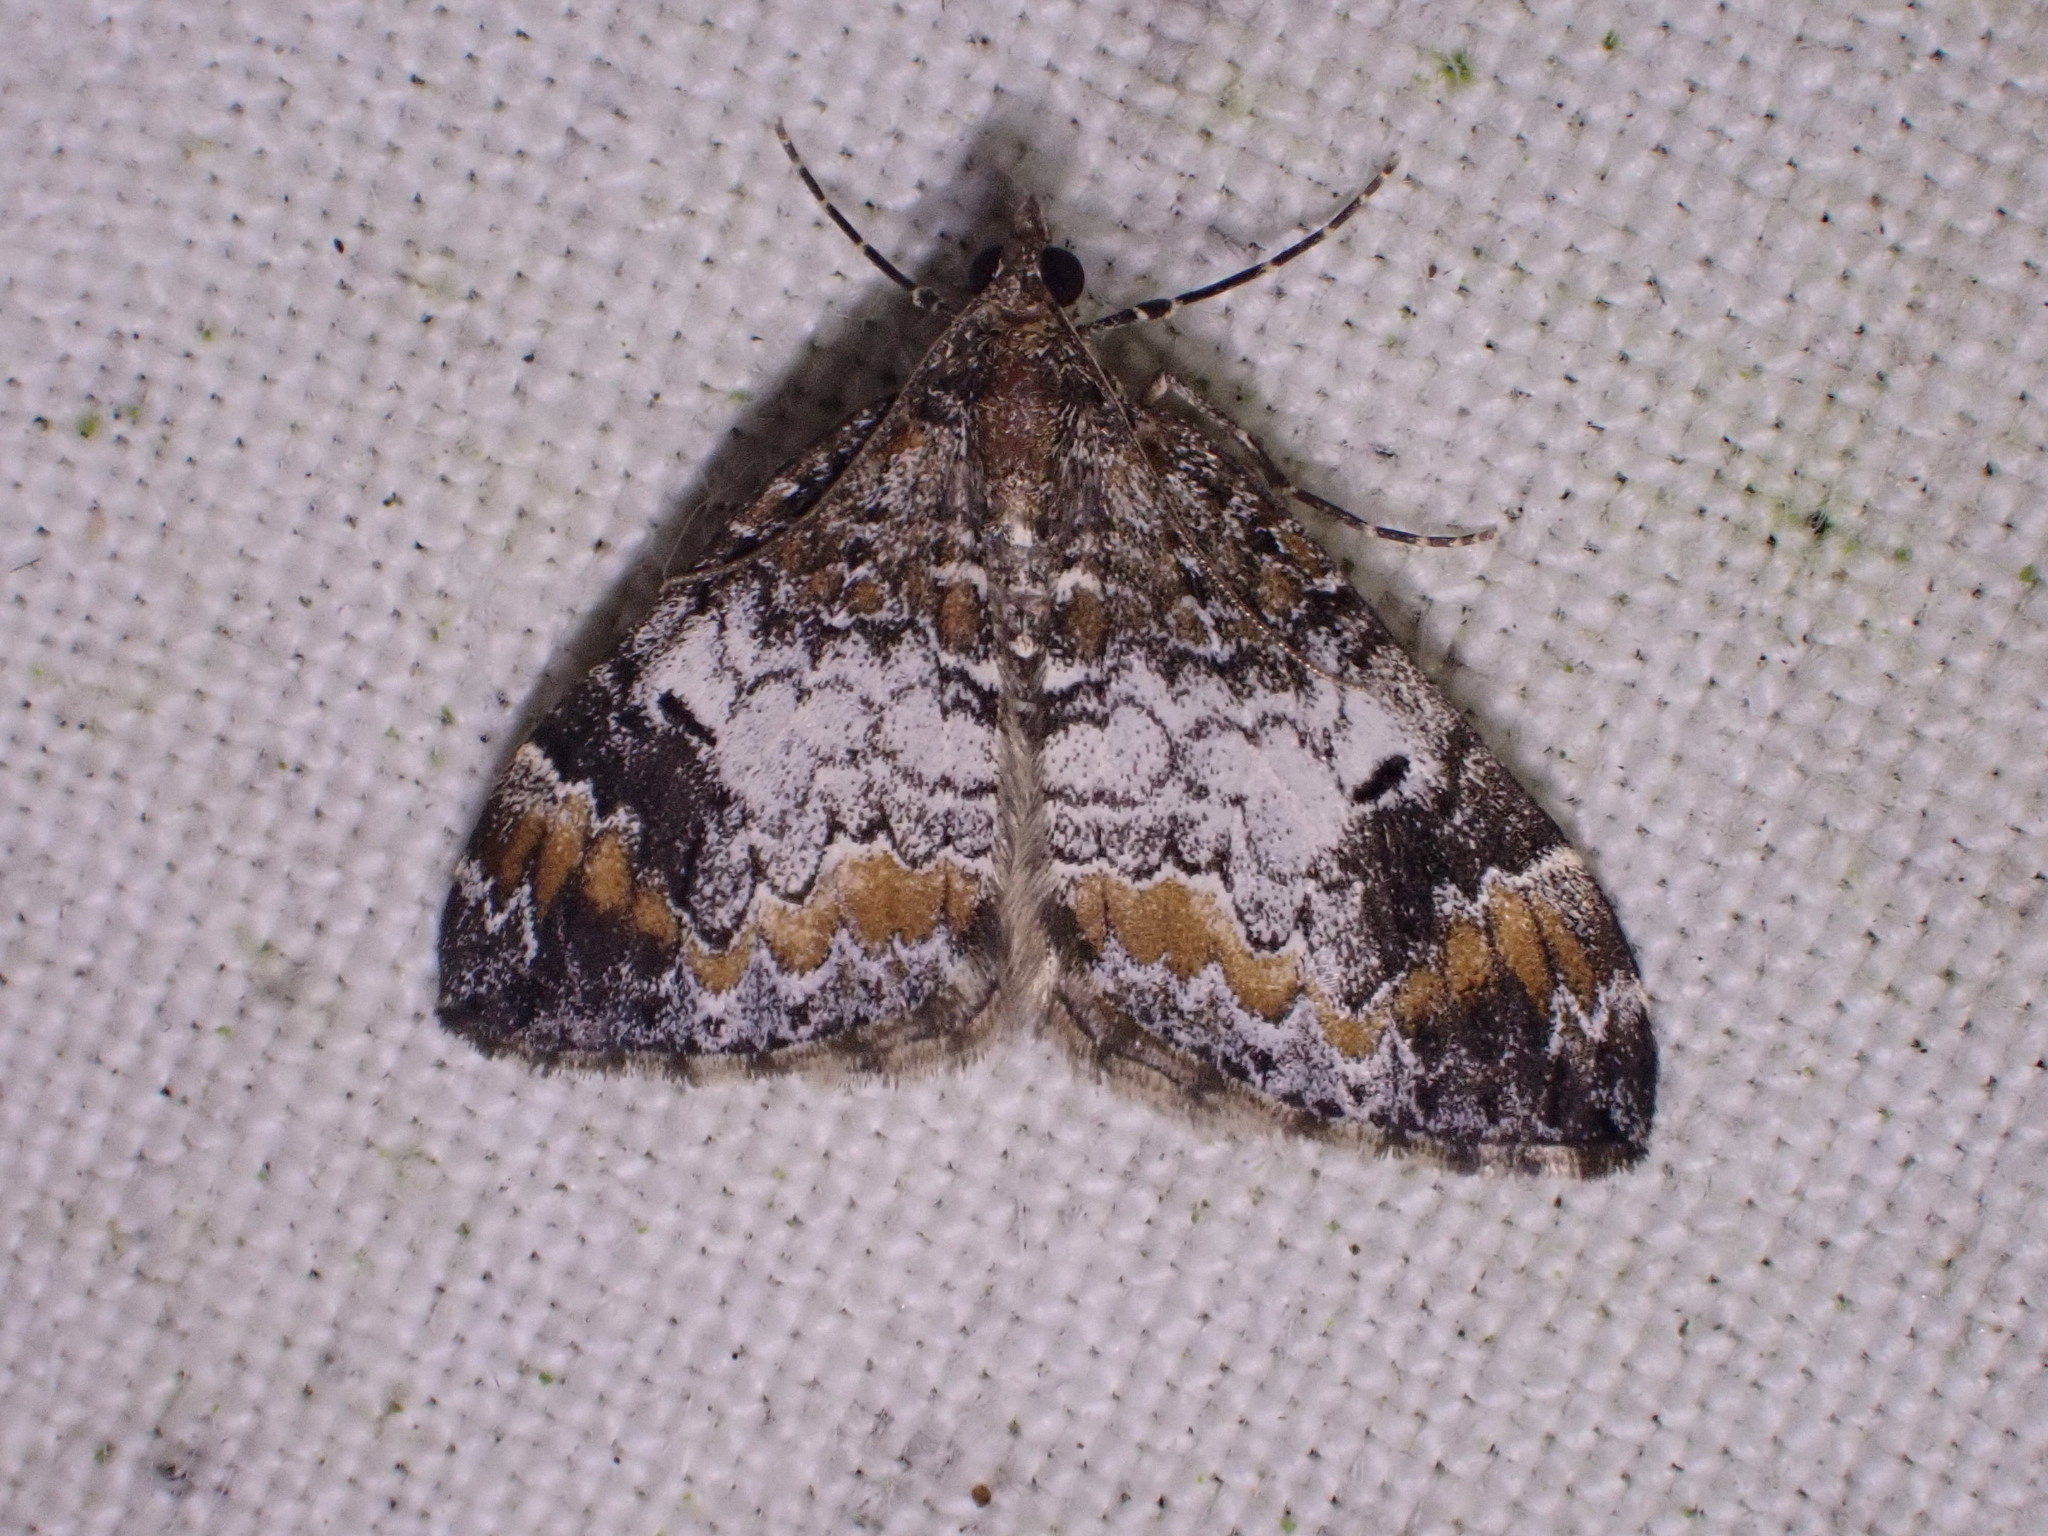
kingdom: Animalia
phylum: Arthropoda
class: Insecta
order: Lepidoptera
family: Geometridae
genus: Dysstroma
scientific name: Dysstroma truncata
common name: Common marbled carpet
